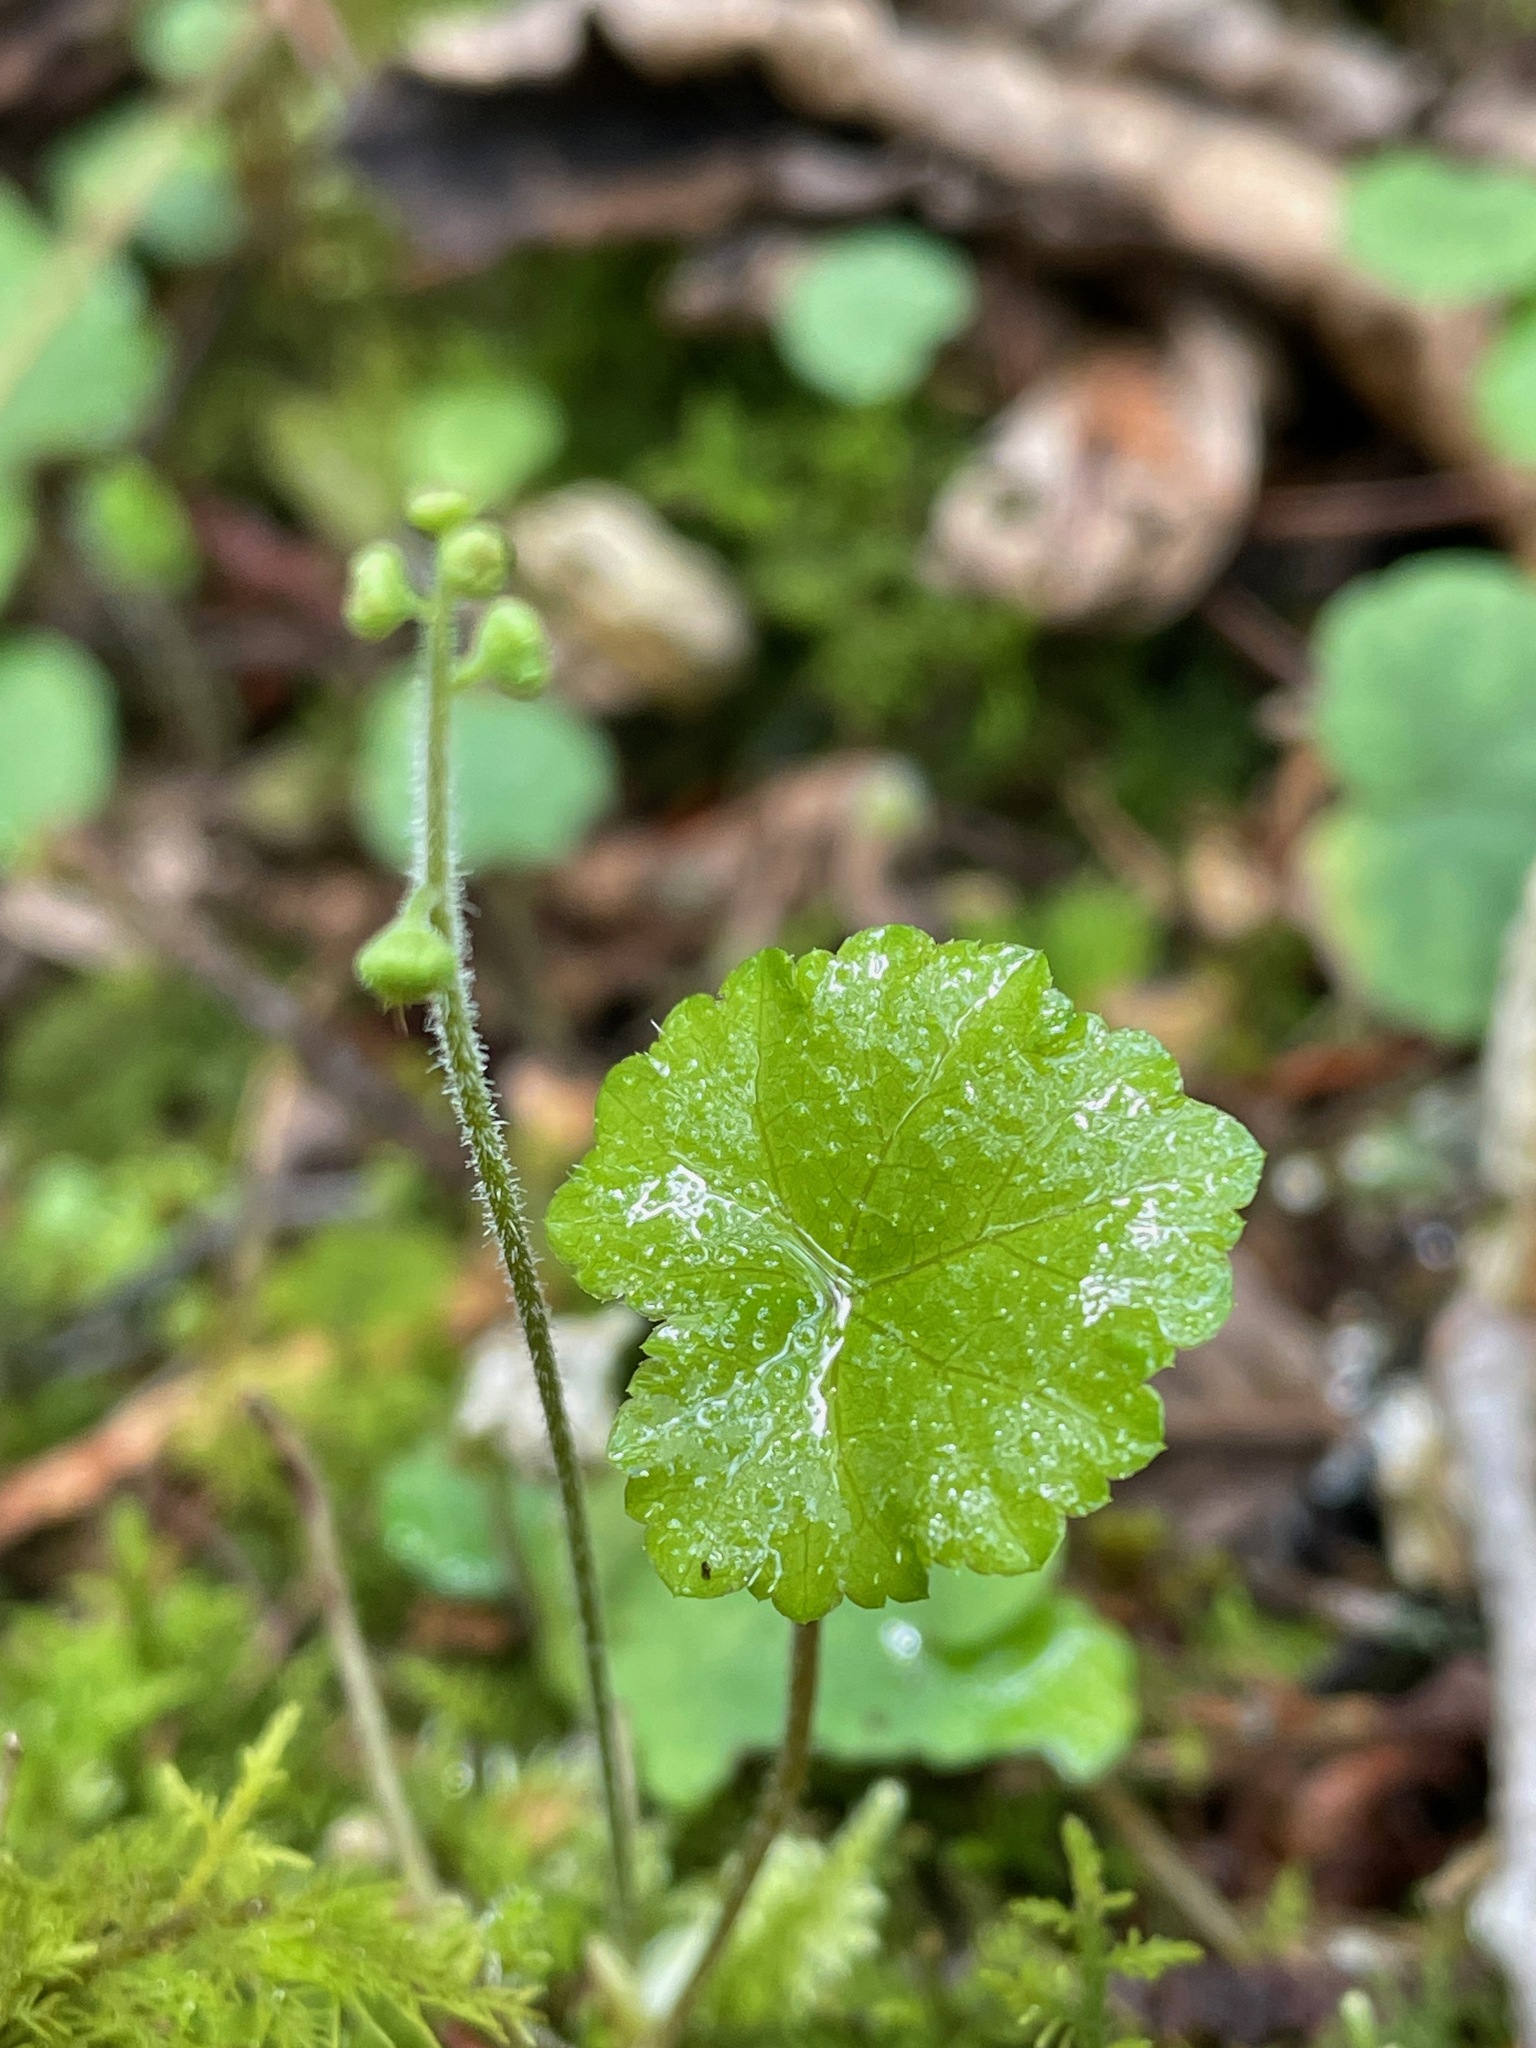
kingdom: Plantae
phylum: Tracheophyta
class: Magnoliopsida
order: Saxifragales
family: Saxifragaceae
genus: Mitella
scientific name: Mitella nuda
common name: Bare-stemmed bishop's-cap
